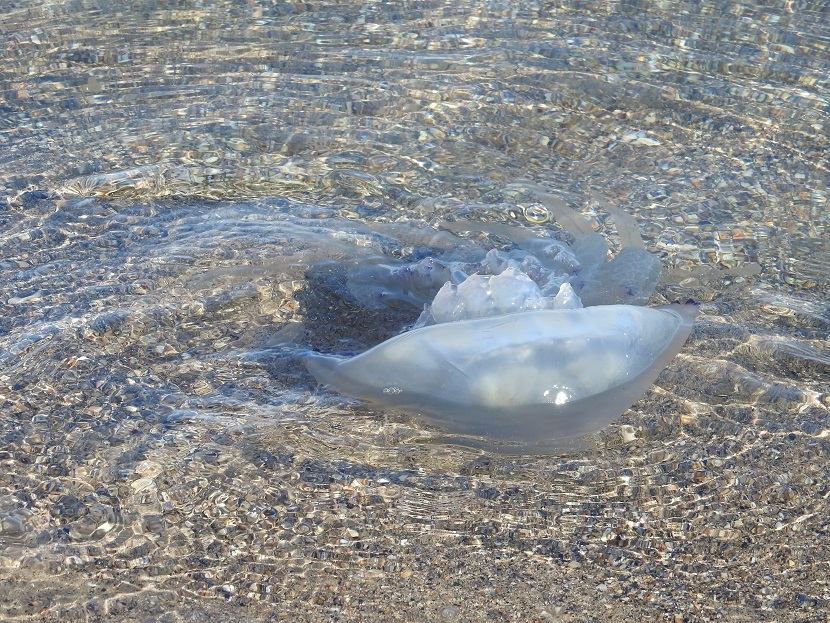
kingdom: Animalia
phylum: Cnidaria
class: Scyphozoa
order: Rhizostomeae
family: Rhizostomatidae
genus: Rhizostoma
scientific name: Rhizostoma pulmo
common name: Barrel jellyfish
